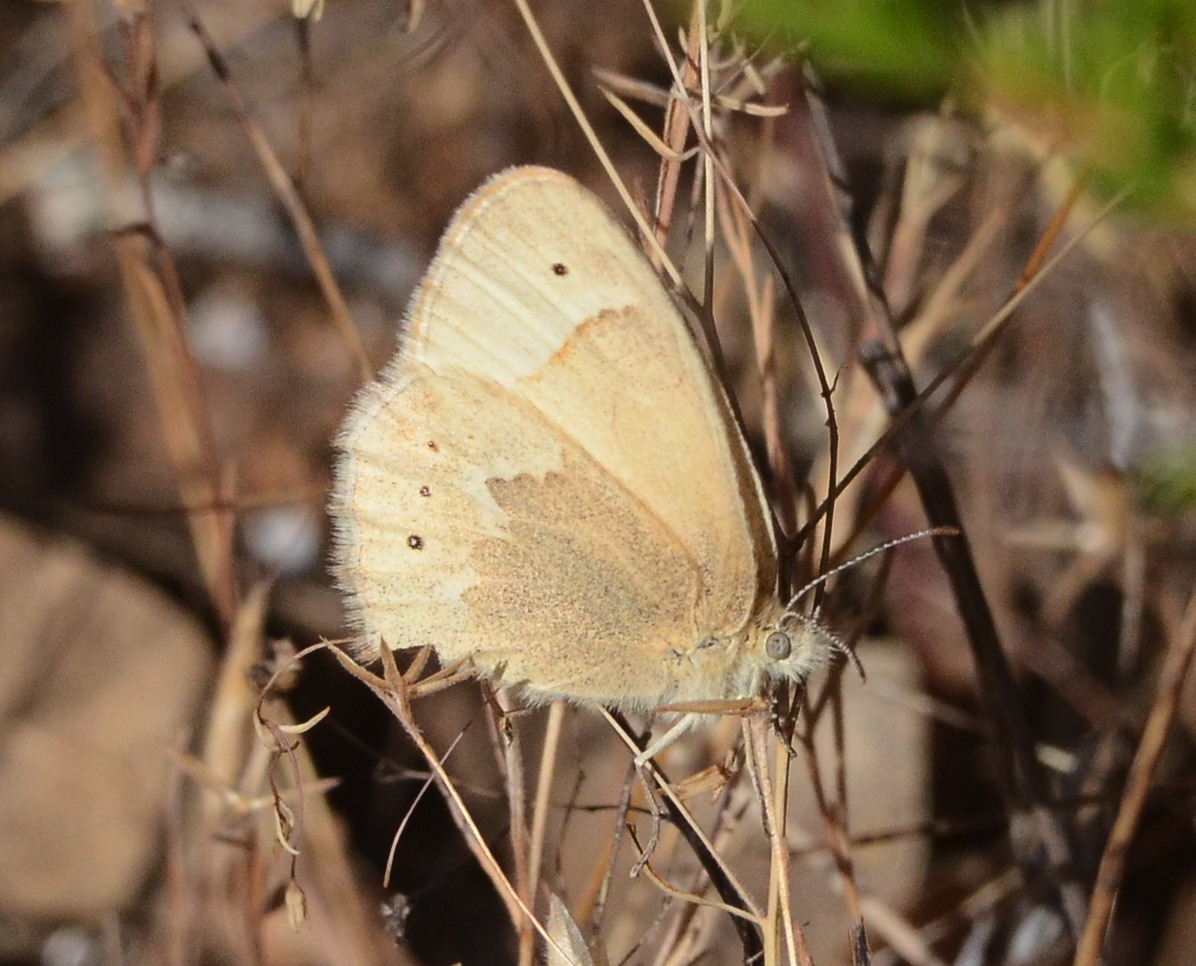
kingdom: Animalia
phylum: Arthropoda
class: Insecta
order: Lepidoptera
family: Nymphalidae
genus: Coenonympha
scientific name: Coenonympha california
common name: Common ringlet
